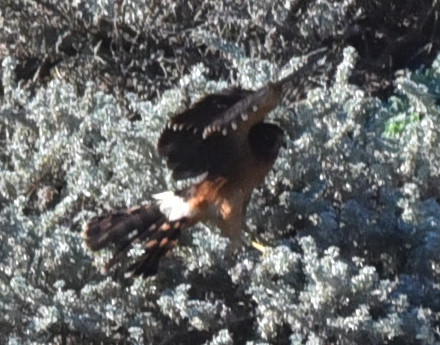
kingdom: Animalia
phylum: Chordata
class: Aves
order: Accipitriformes
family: Accipitridae
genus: Circus
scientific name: Circus cyaneus
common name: Hen harrier
